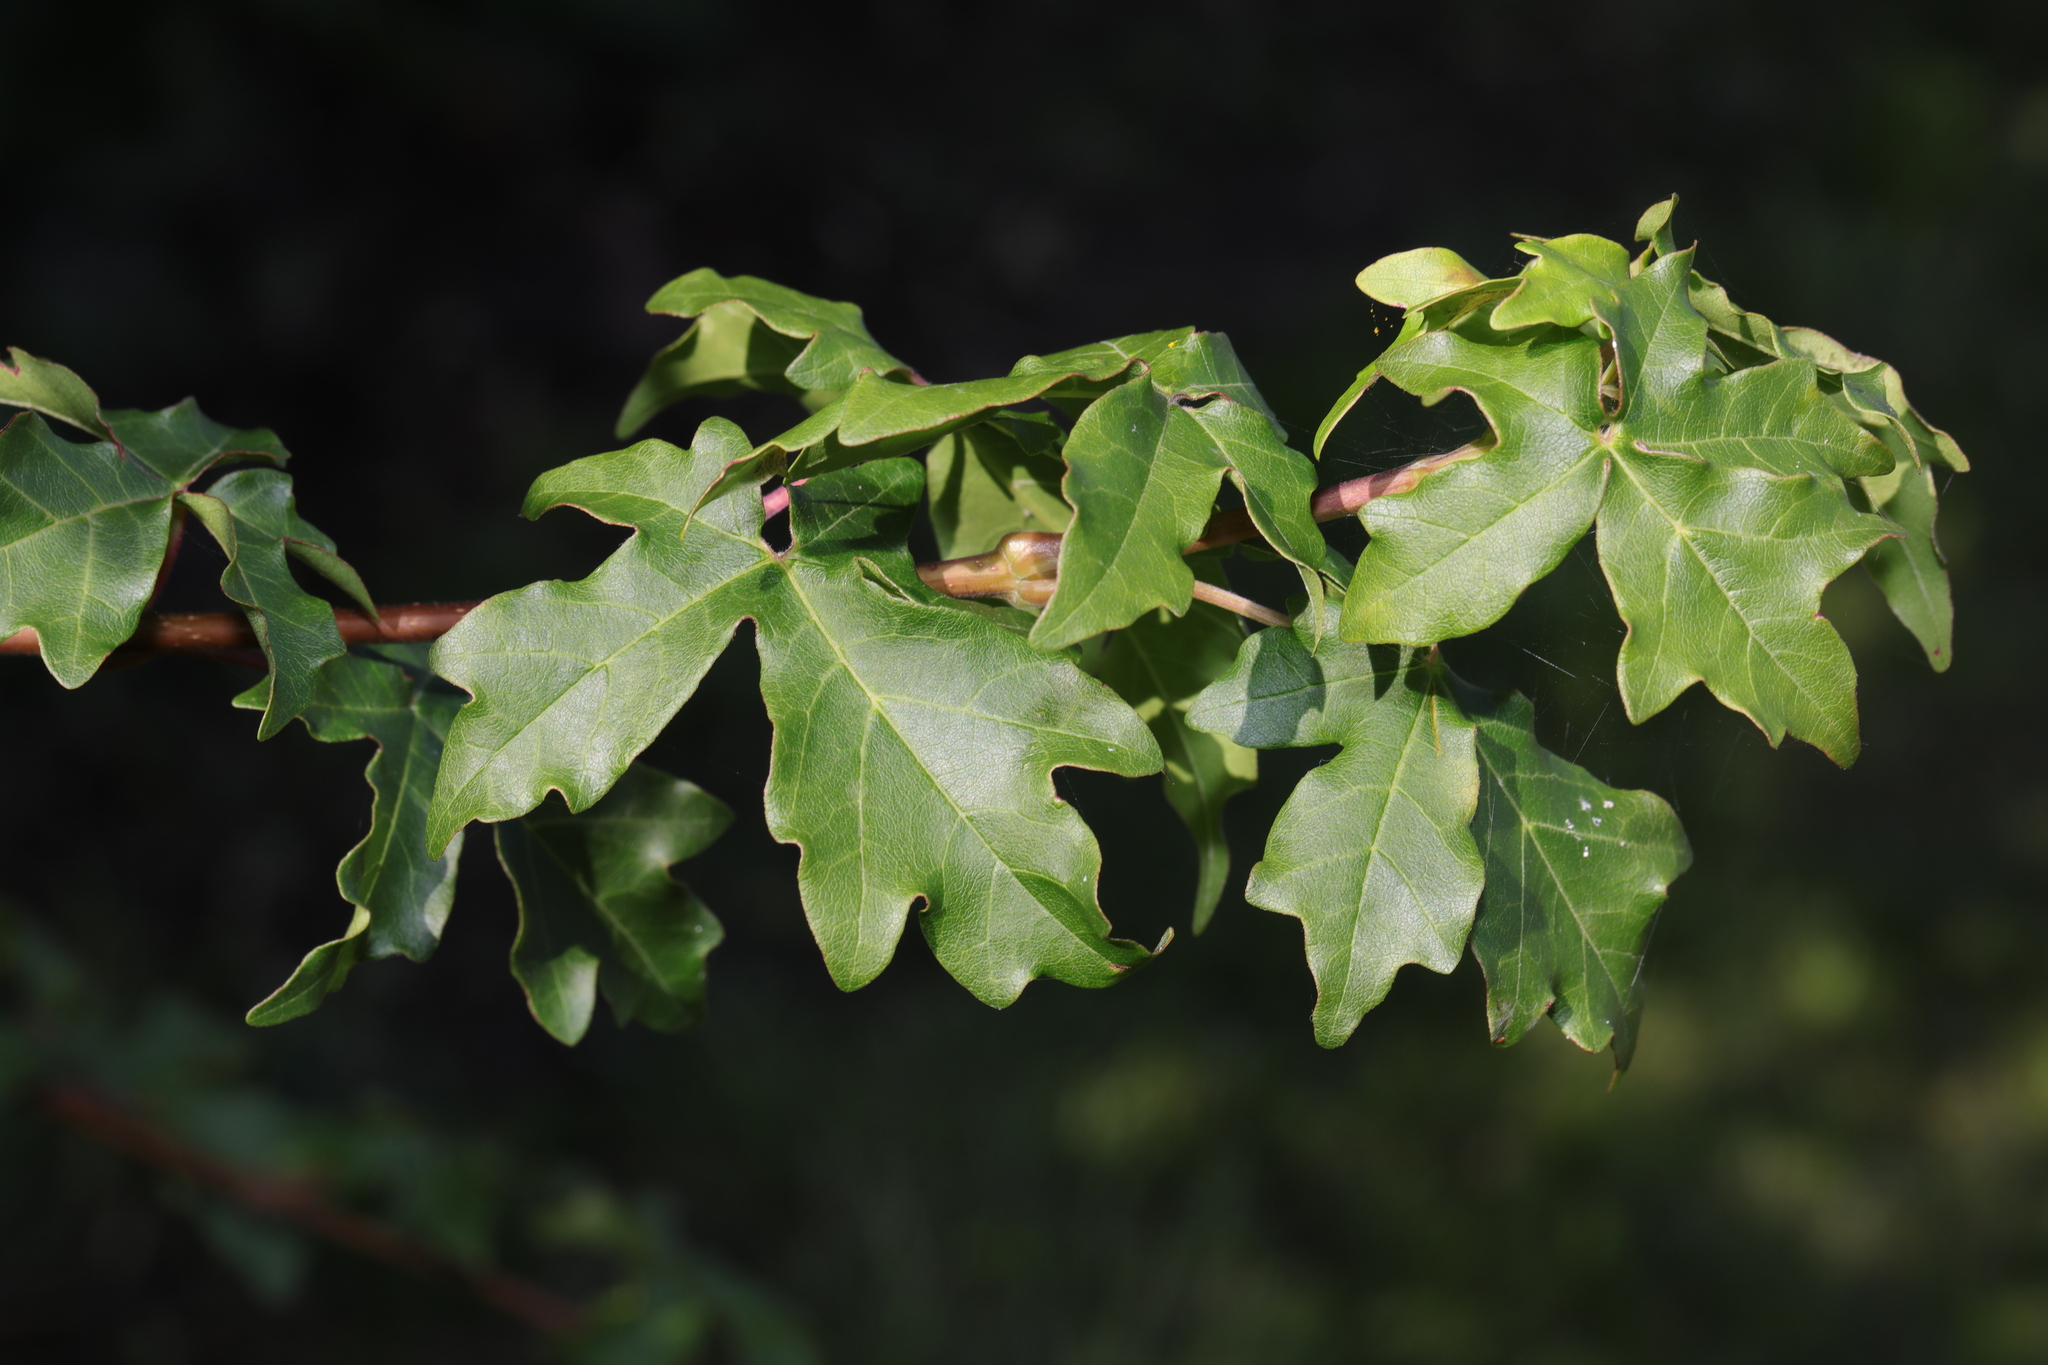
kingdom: Plantae
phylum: Tracheophyta
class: Magnoliopsida
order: Sapindales
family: Sapindaceae
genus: Acer
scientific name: Acer campestre
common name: Field maple
